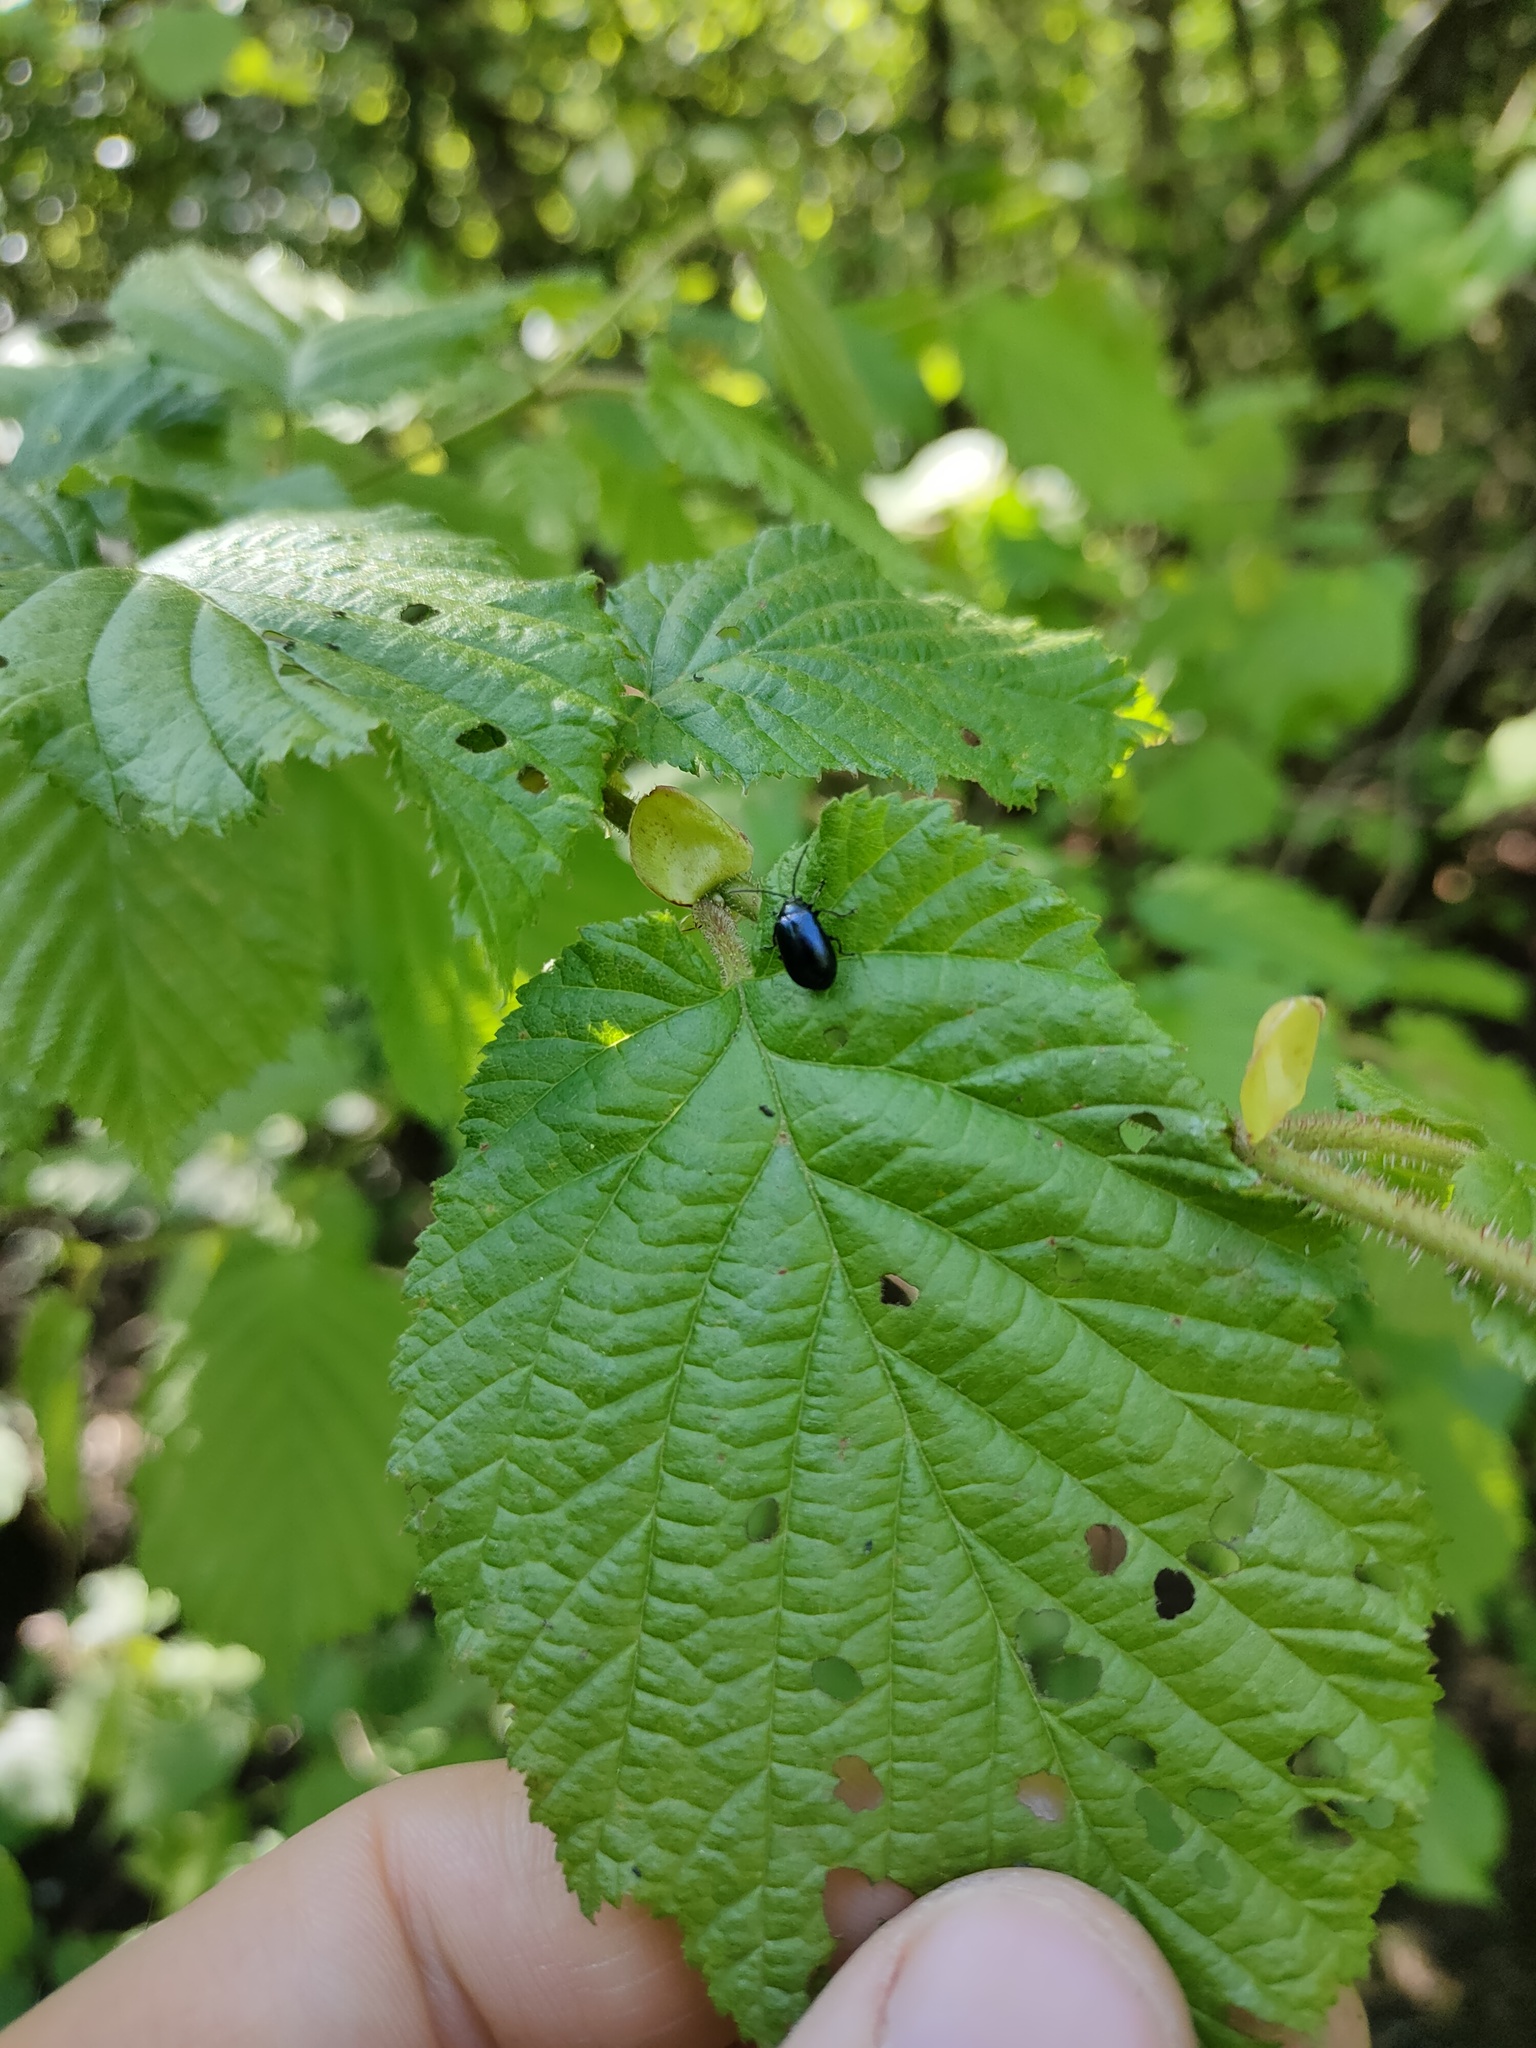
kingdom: Animalia
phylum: Arthropoda
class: Insecta
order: Coleoptera
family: Chrysomelidae
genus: Agelastica
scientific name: Agelastica alni
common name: Alder leaf beetle
